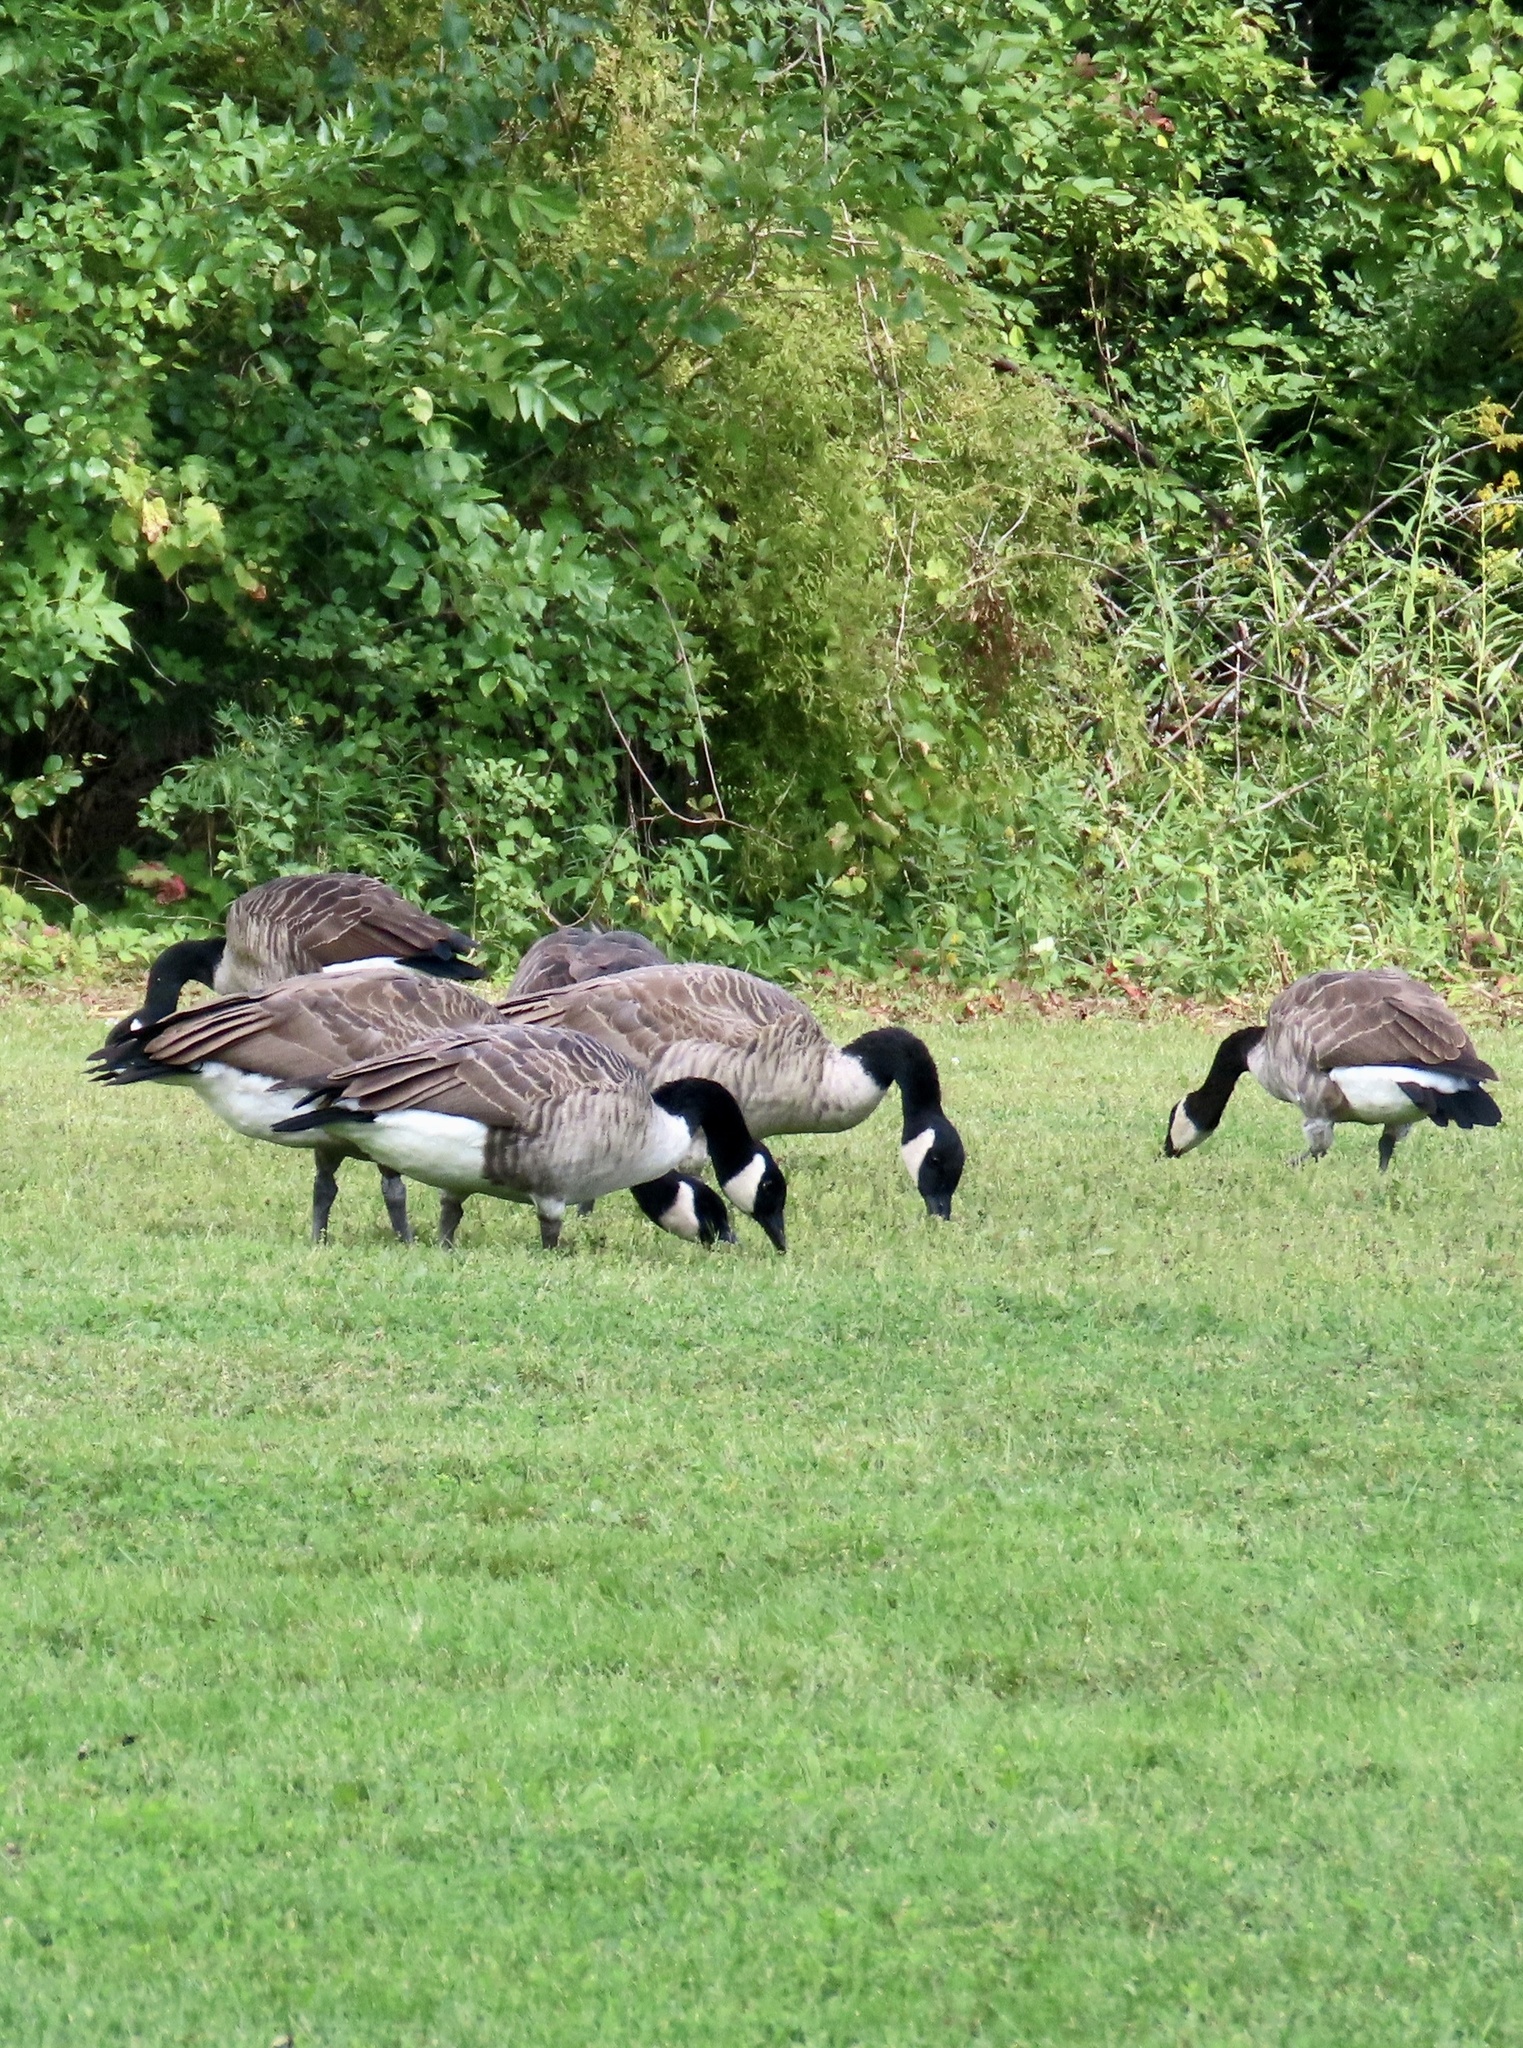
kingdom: Animalia
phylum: Chordata
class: Aves
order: Anseriformes
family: Anatidae
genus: Branta
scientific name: Branta canadensis
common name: Canada goose
